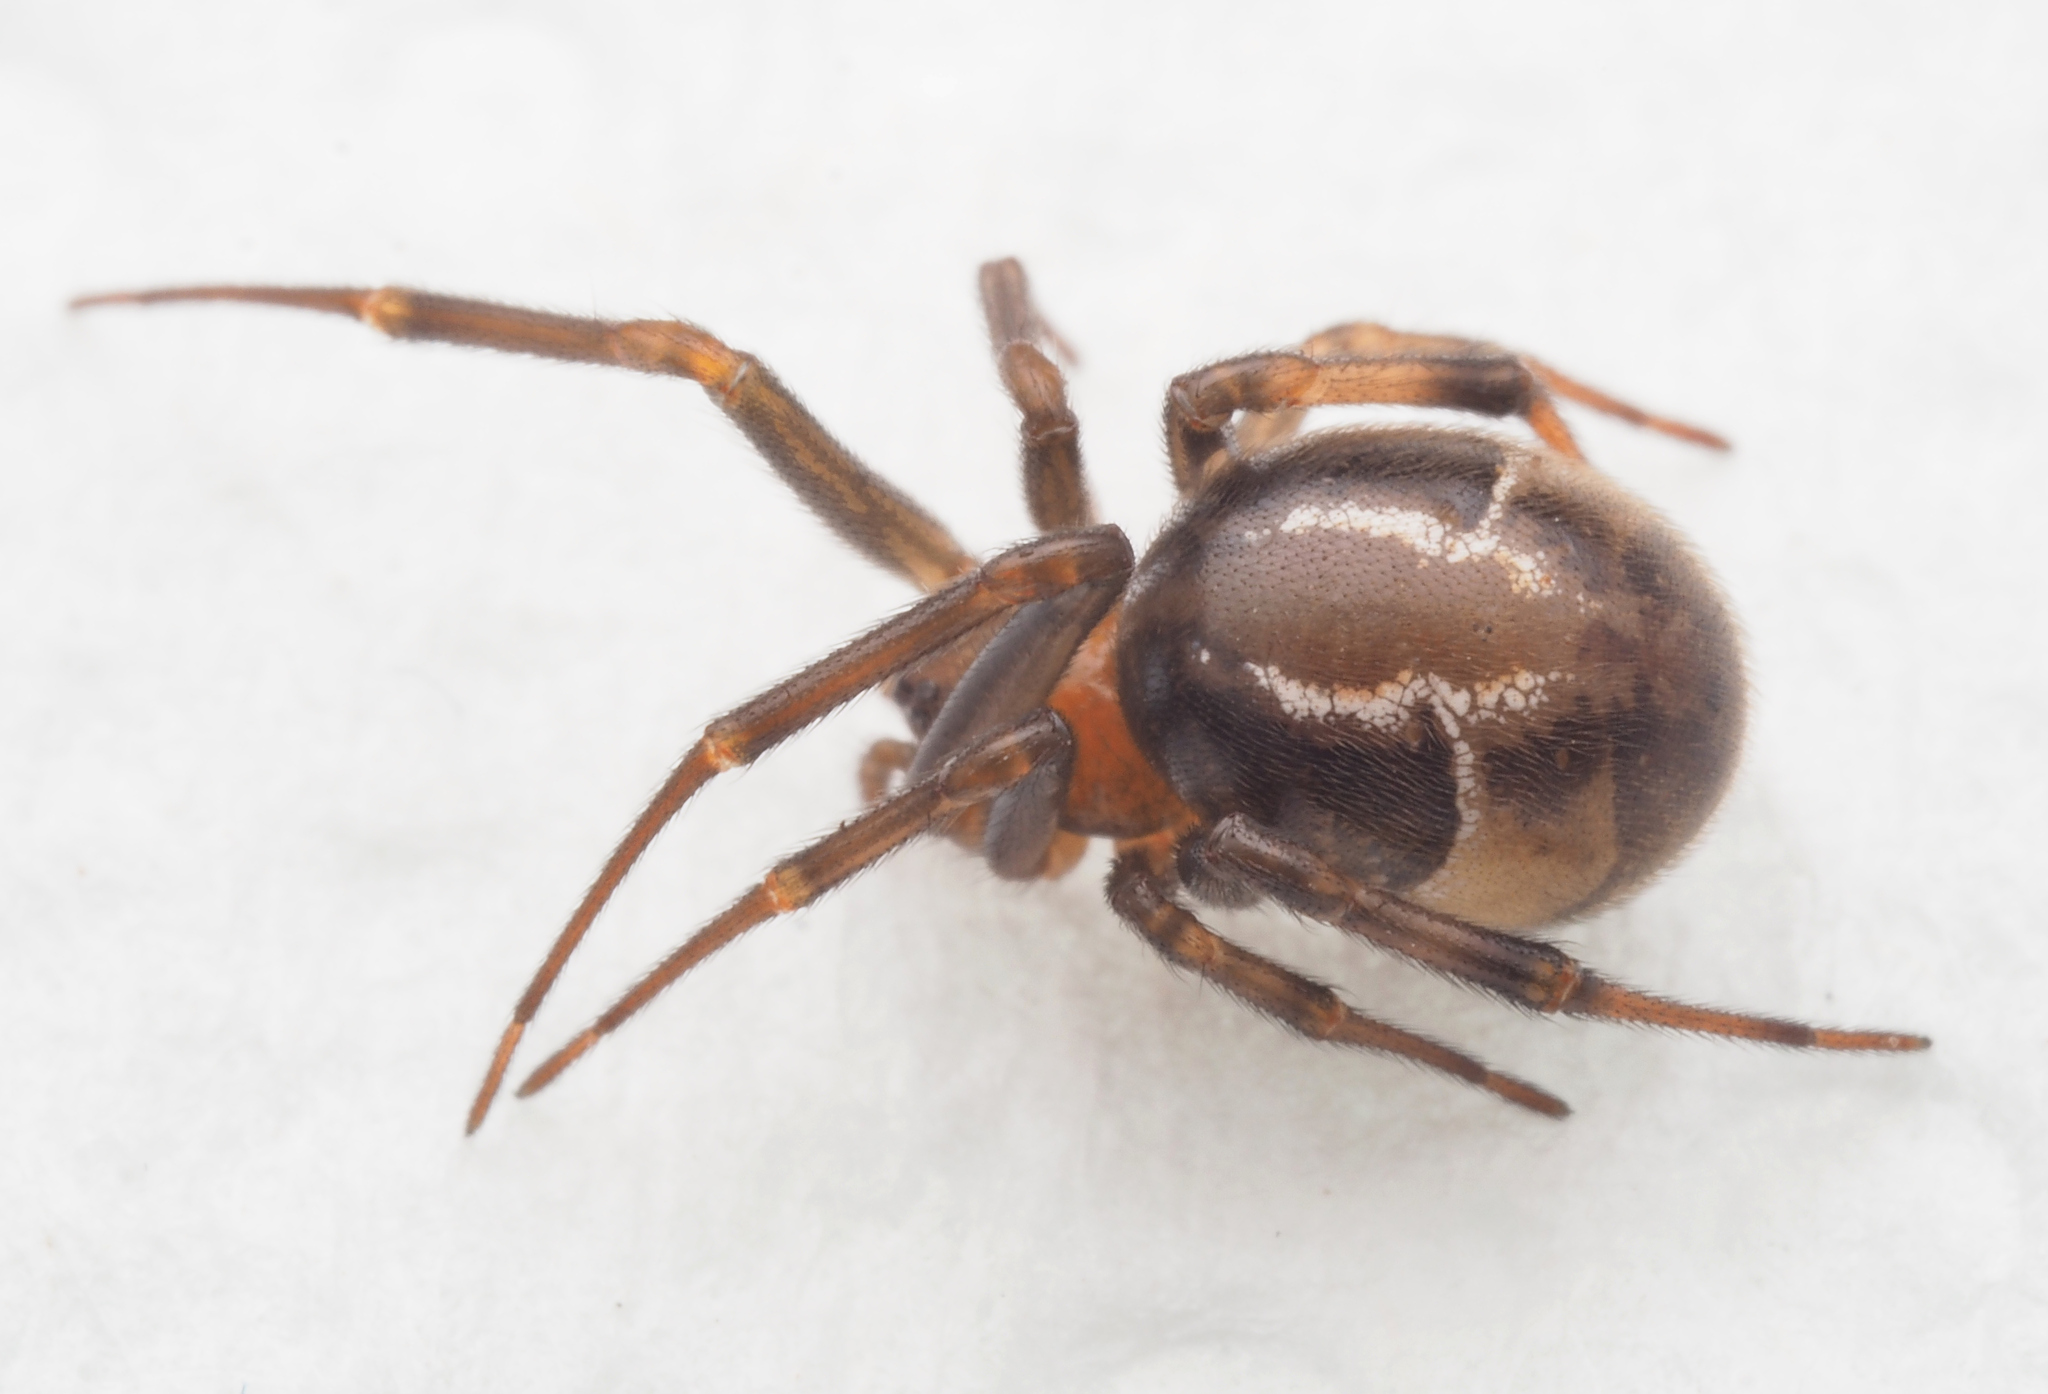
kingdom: Animalia
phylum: Arthropoda
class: Arachnida
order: Araneae
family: Theridiidae
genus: Nihonhimea
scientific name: Nihonhimea mundula
